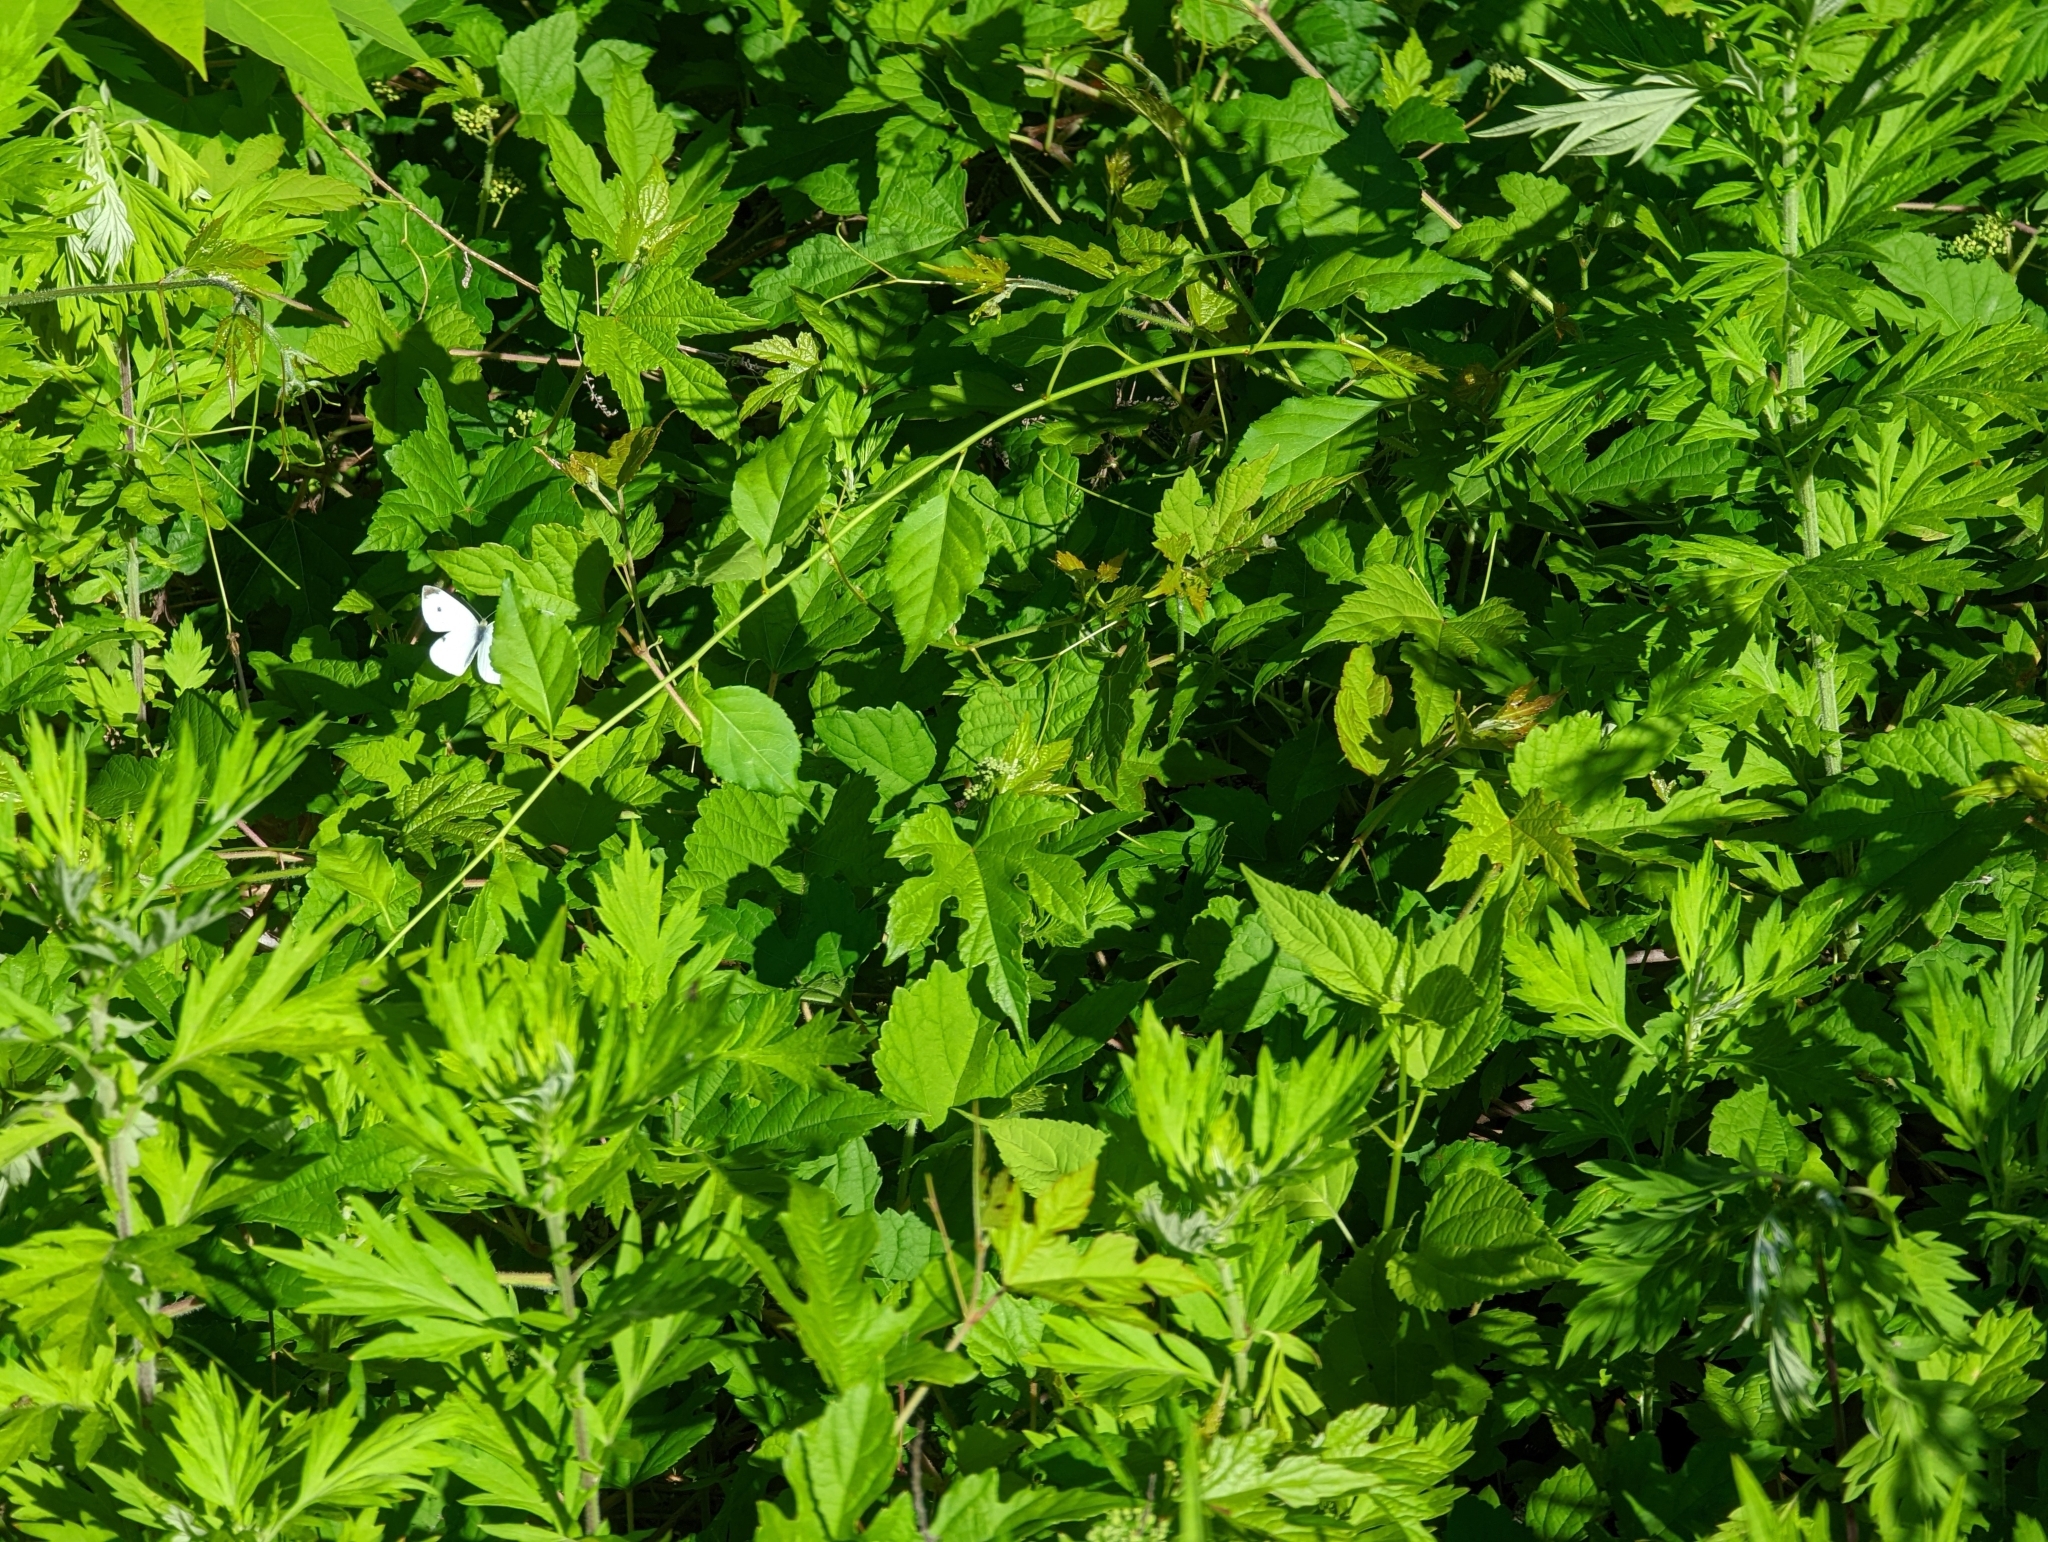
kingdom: Animalia
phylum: Arthropoda
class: Insecta
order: Lepidoptera
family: Pieridae
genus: Pieris
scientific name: Pieris rapae
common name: Small white
